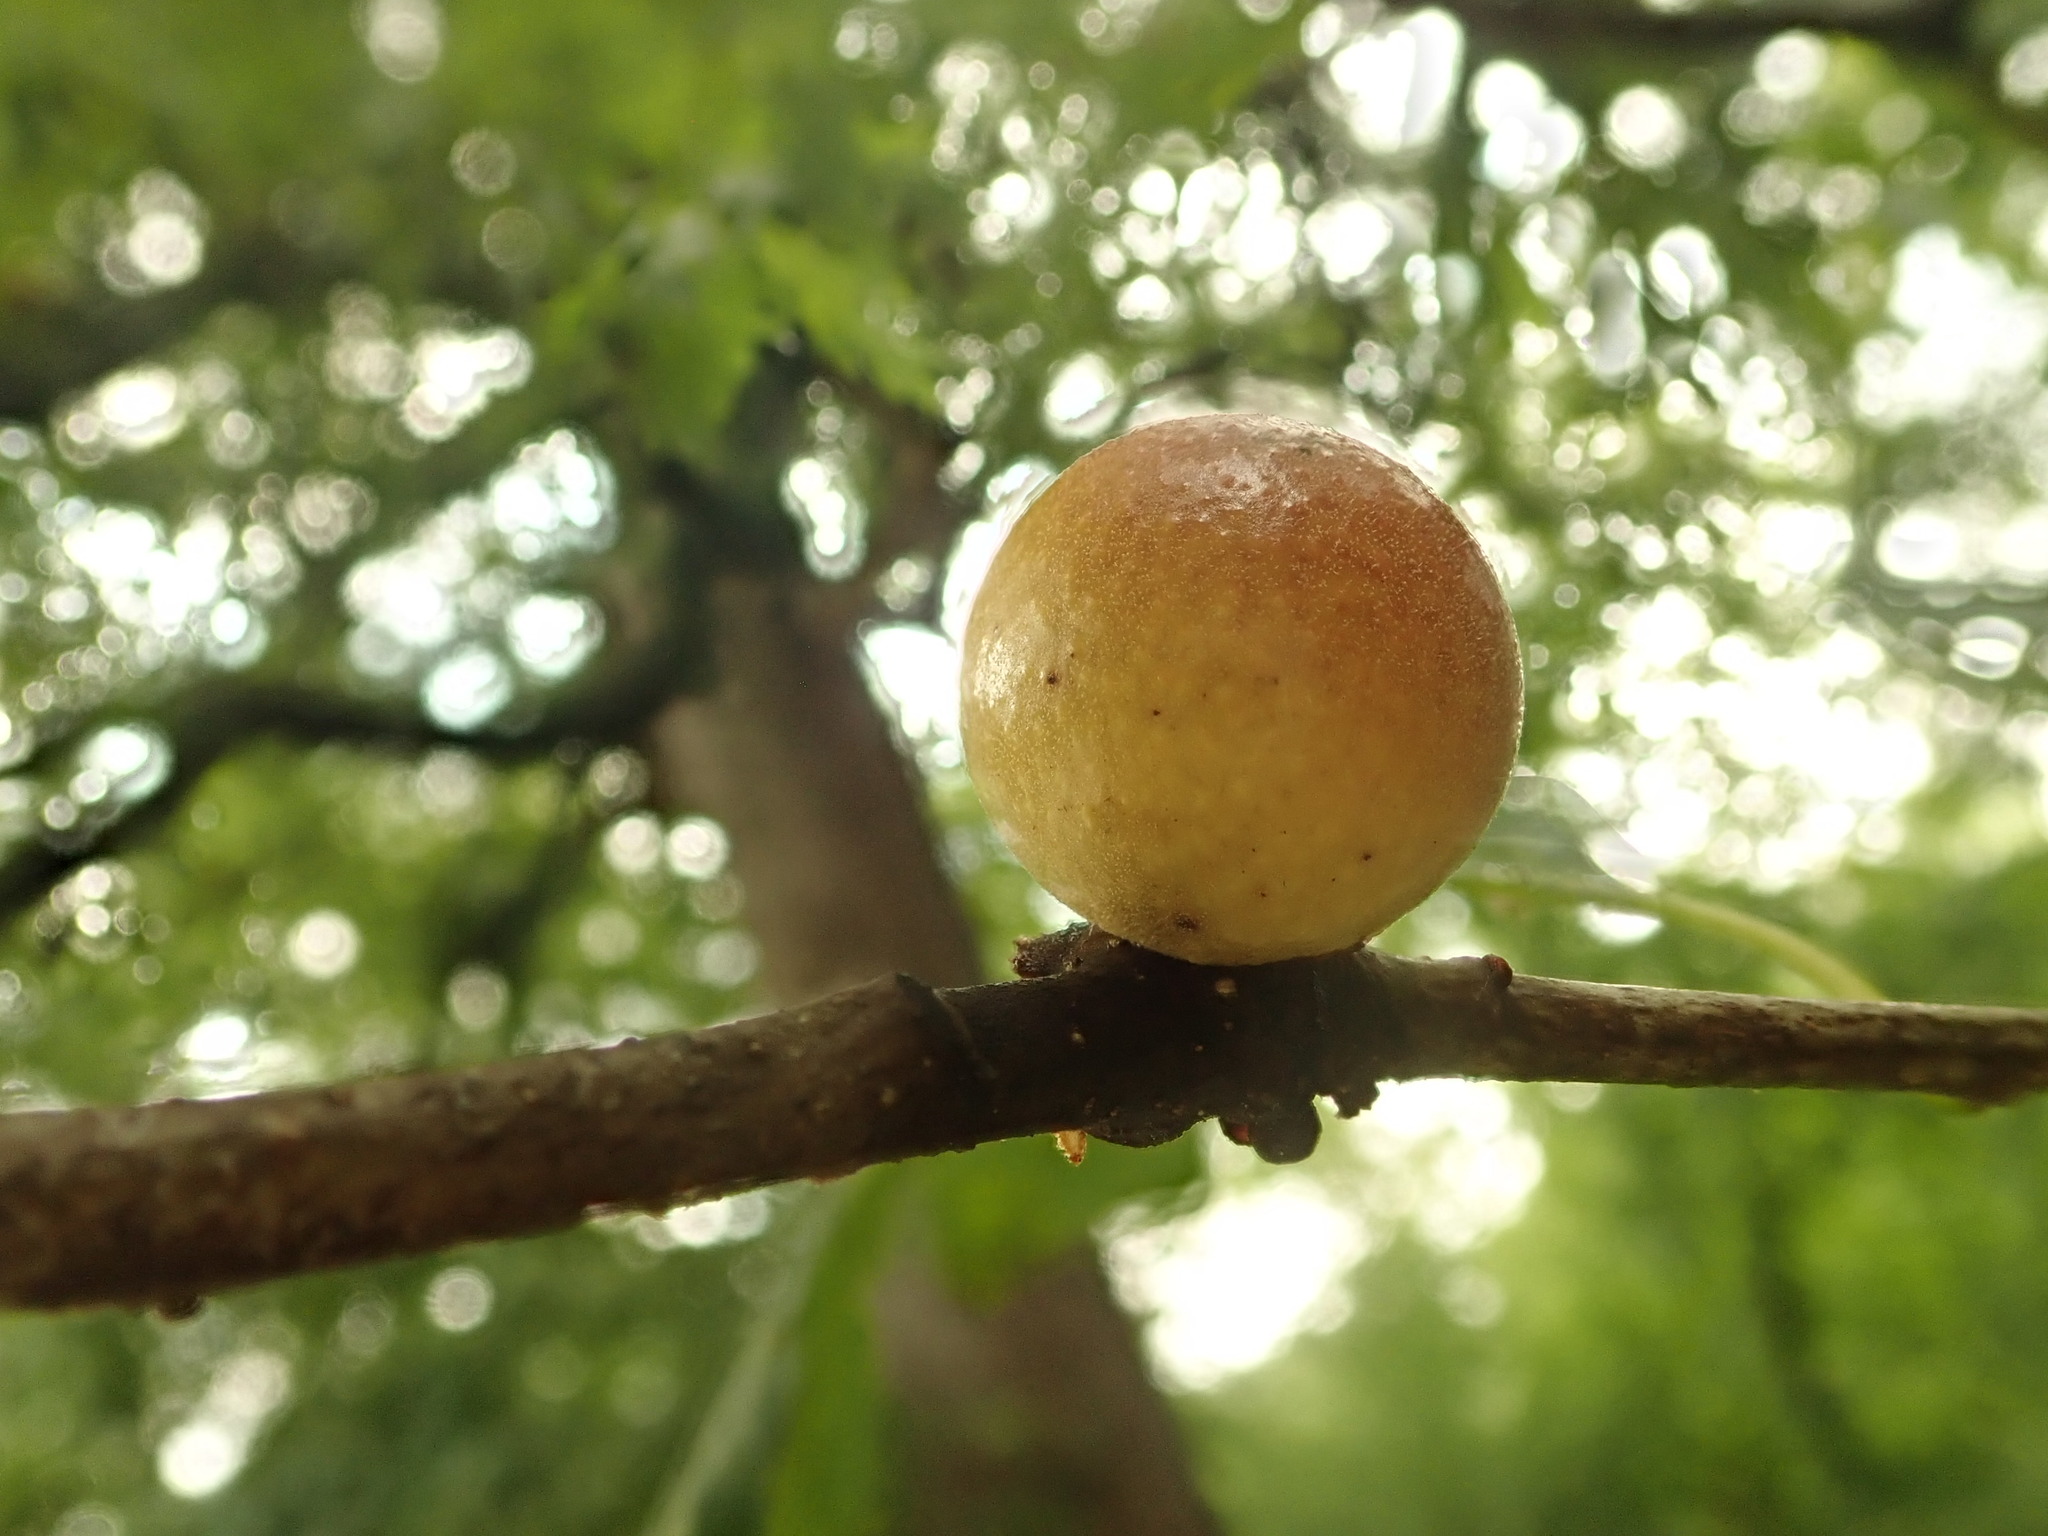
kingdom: Animalia
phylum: Arthropoda
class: Insecta
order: Hymenoptera
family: Cynipidae
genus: Disholcaspis
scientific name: Disholcaspis quercusglobulus
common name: Round bullet gall wasp
